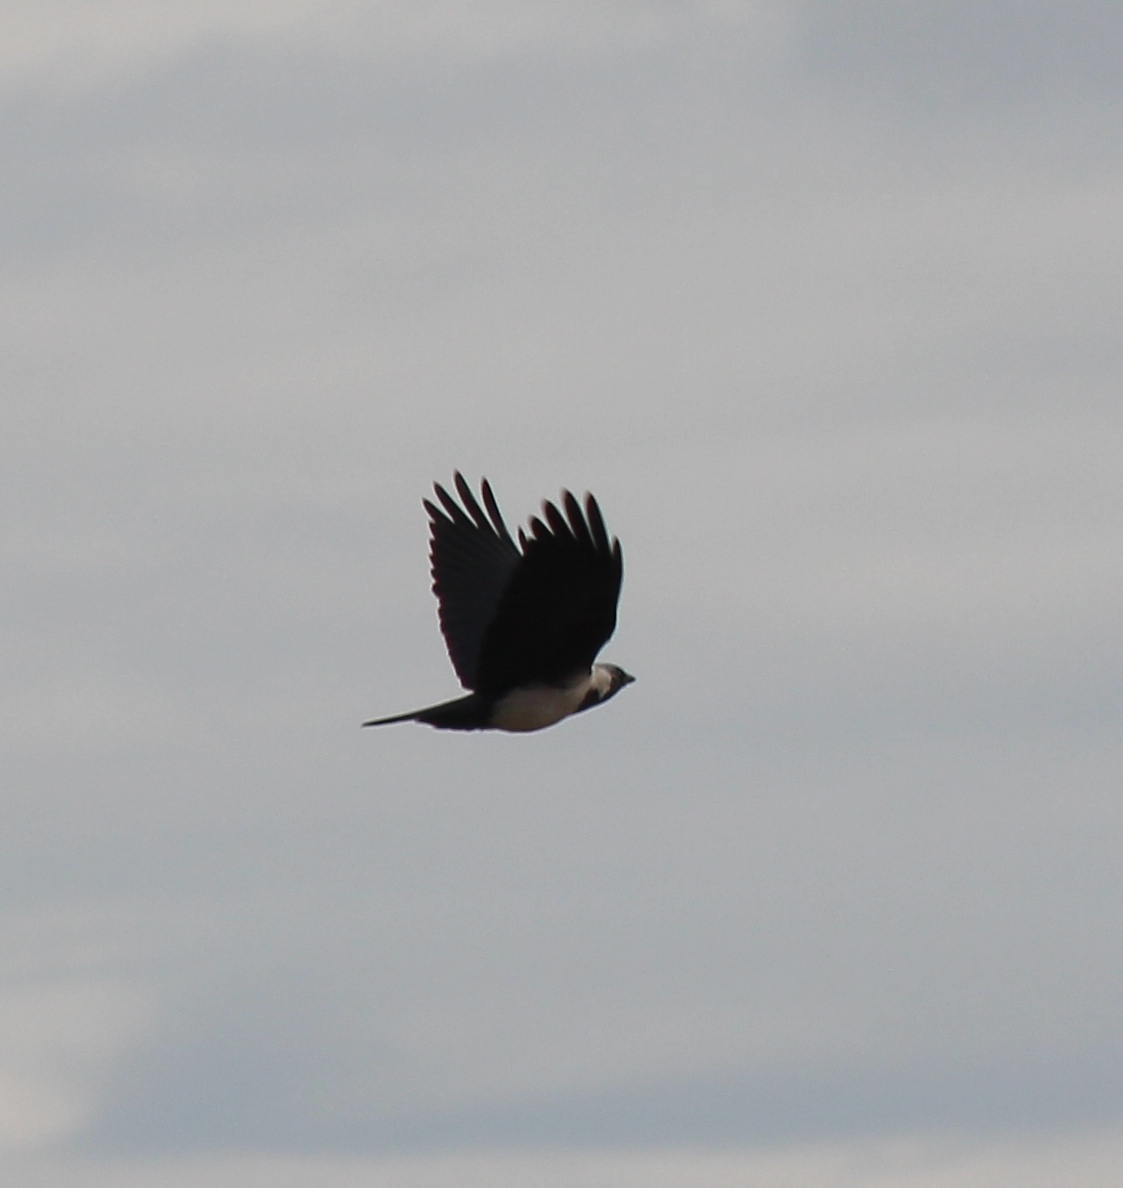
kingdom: Animalia
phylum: Chordata
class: Aves
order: Passeriformes
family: Corvidae
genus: Coloeus
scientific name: Coloeus dauuricus
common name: Daurian jackdaw
